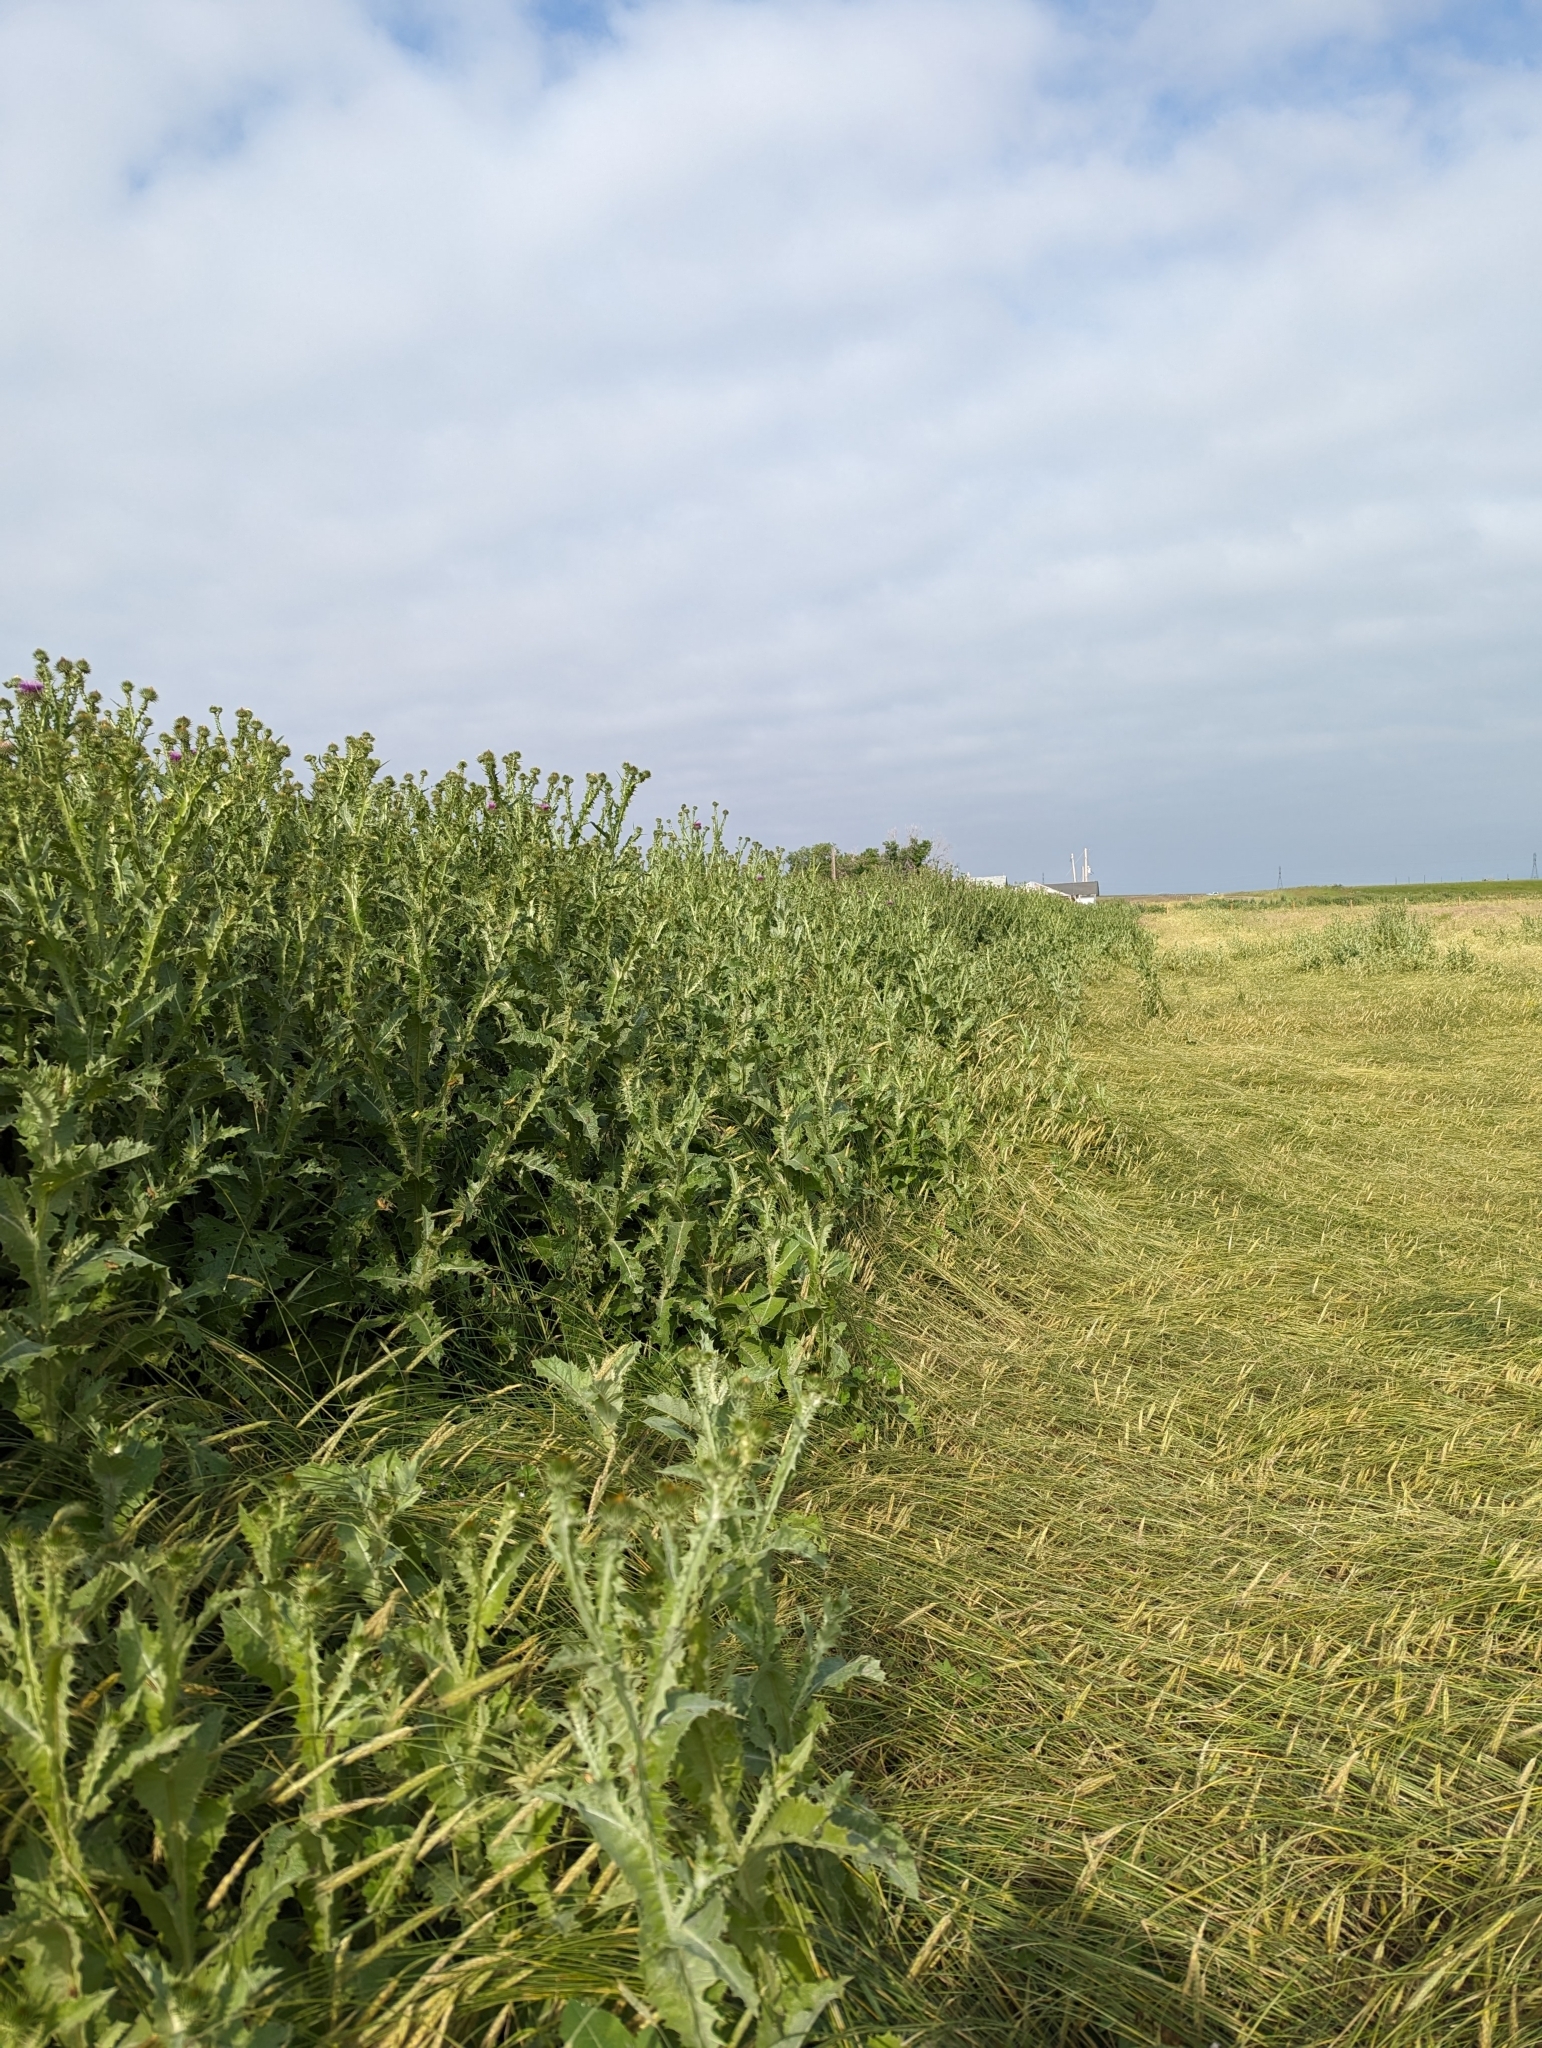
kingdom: Plantae
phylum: Tracheophyta
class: Magnoliopsida
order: Asterales
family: Asteraceae
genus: Onopordum
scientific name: Onopordum acanthium
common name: Scotch thistle
